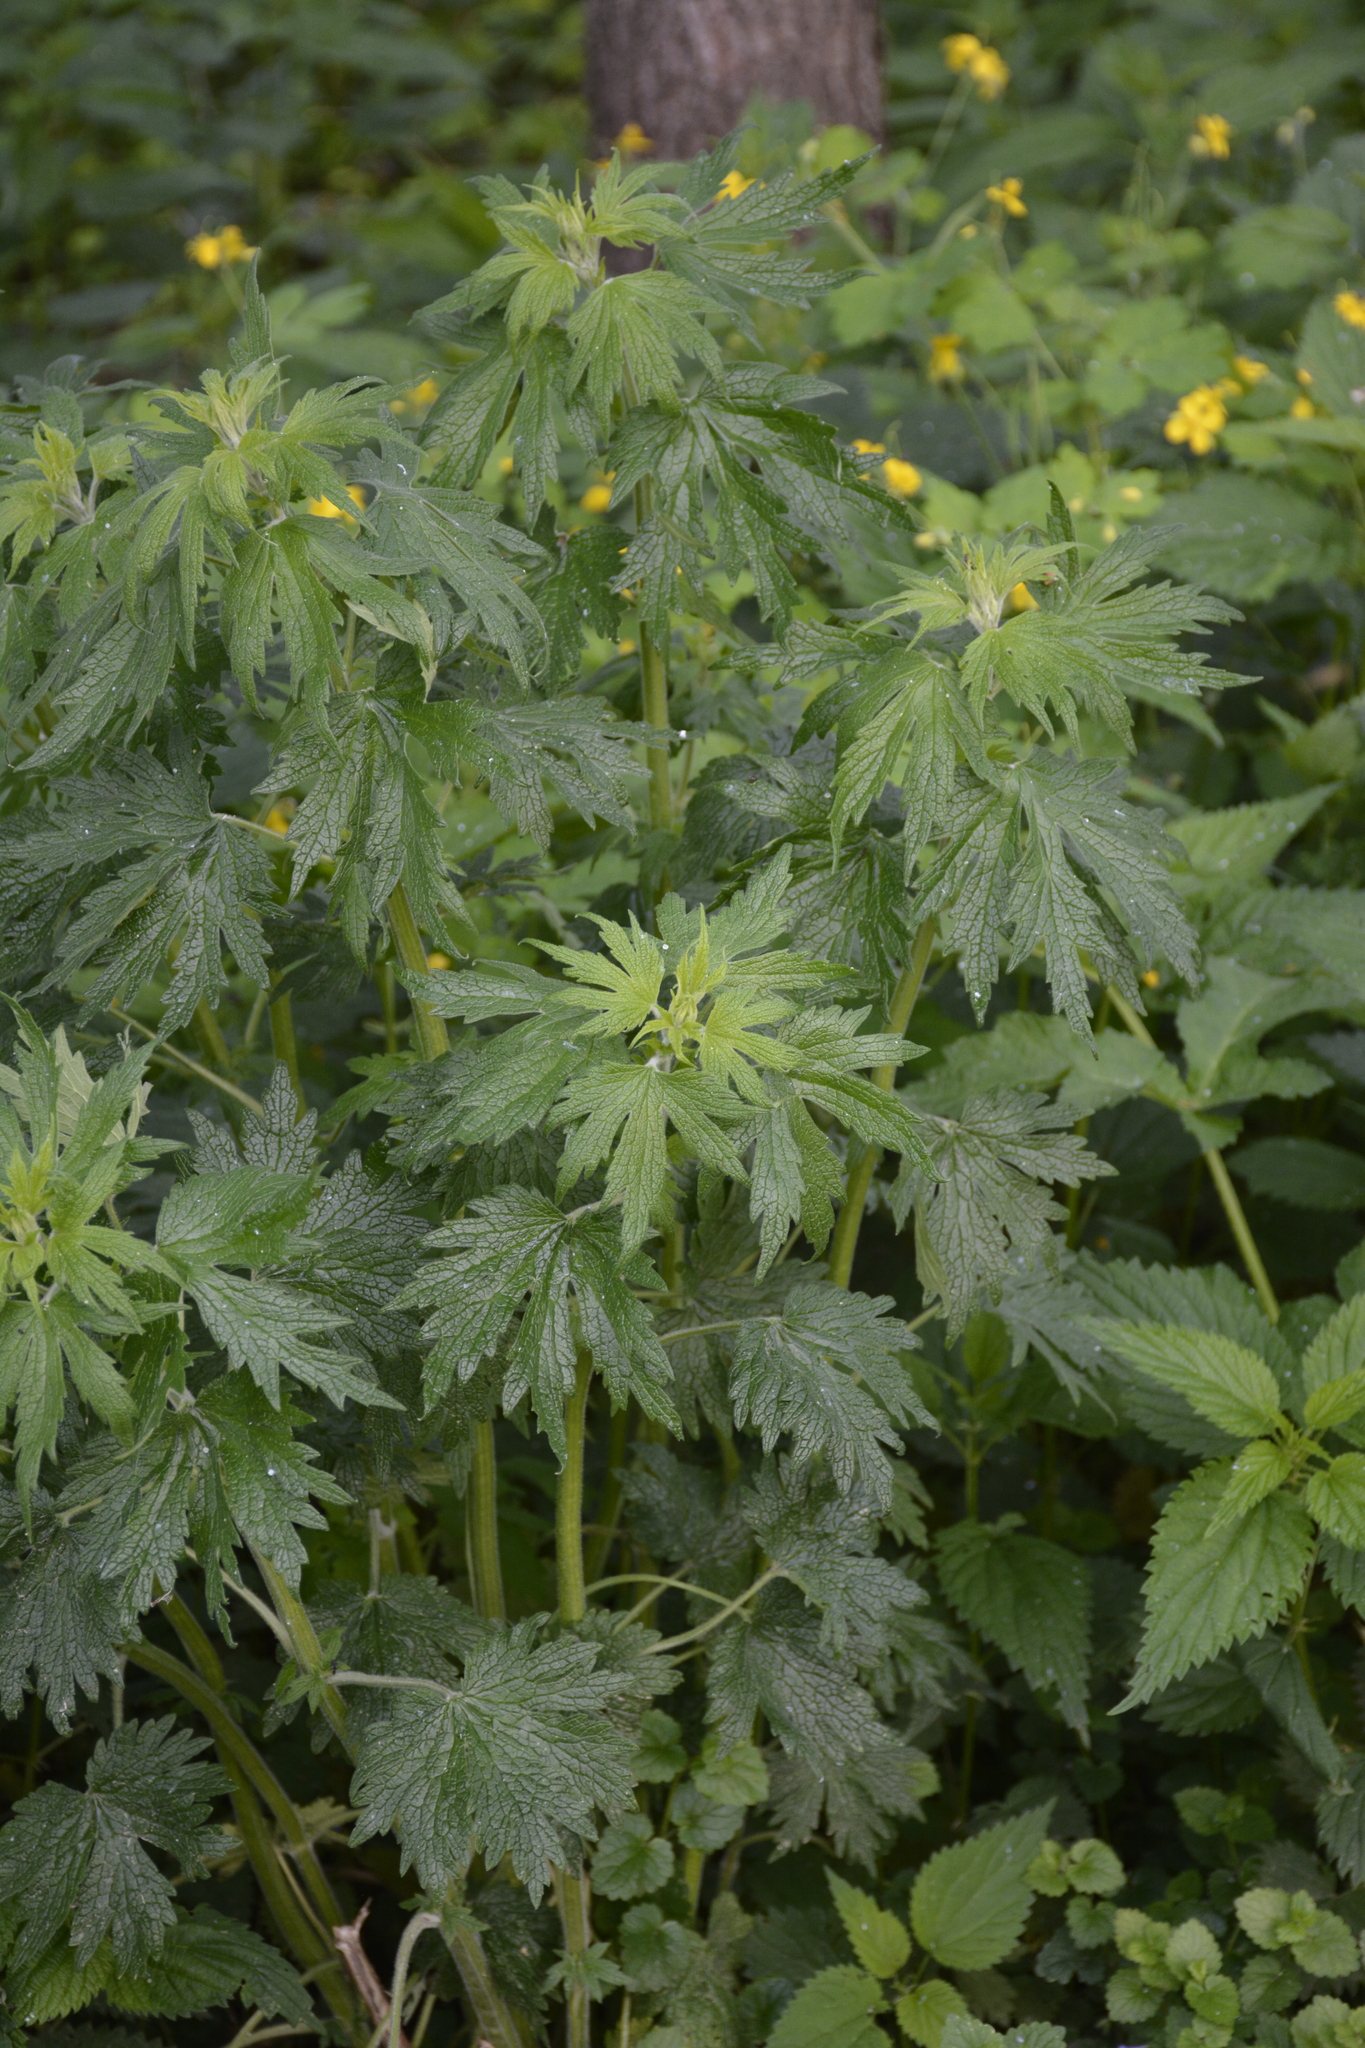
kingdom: Plantae
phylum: Tracheophyta
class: Magnoliopsida
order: Lamiales
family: Lamiaceae
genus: Leonurus
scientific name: Leonurus quinquelobatus
